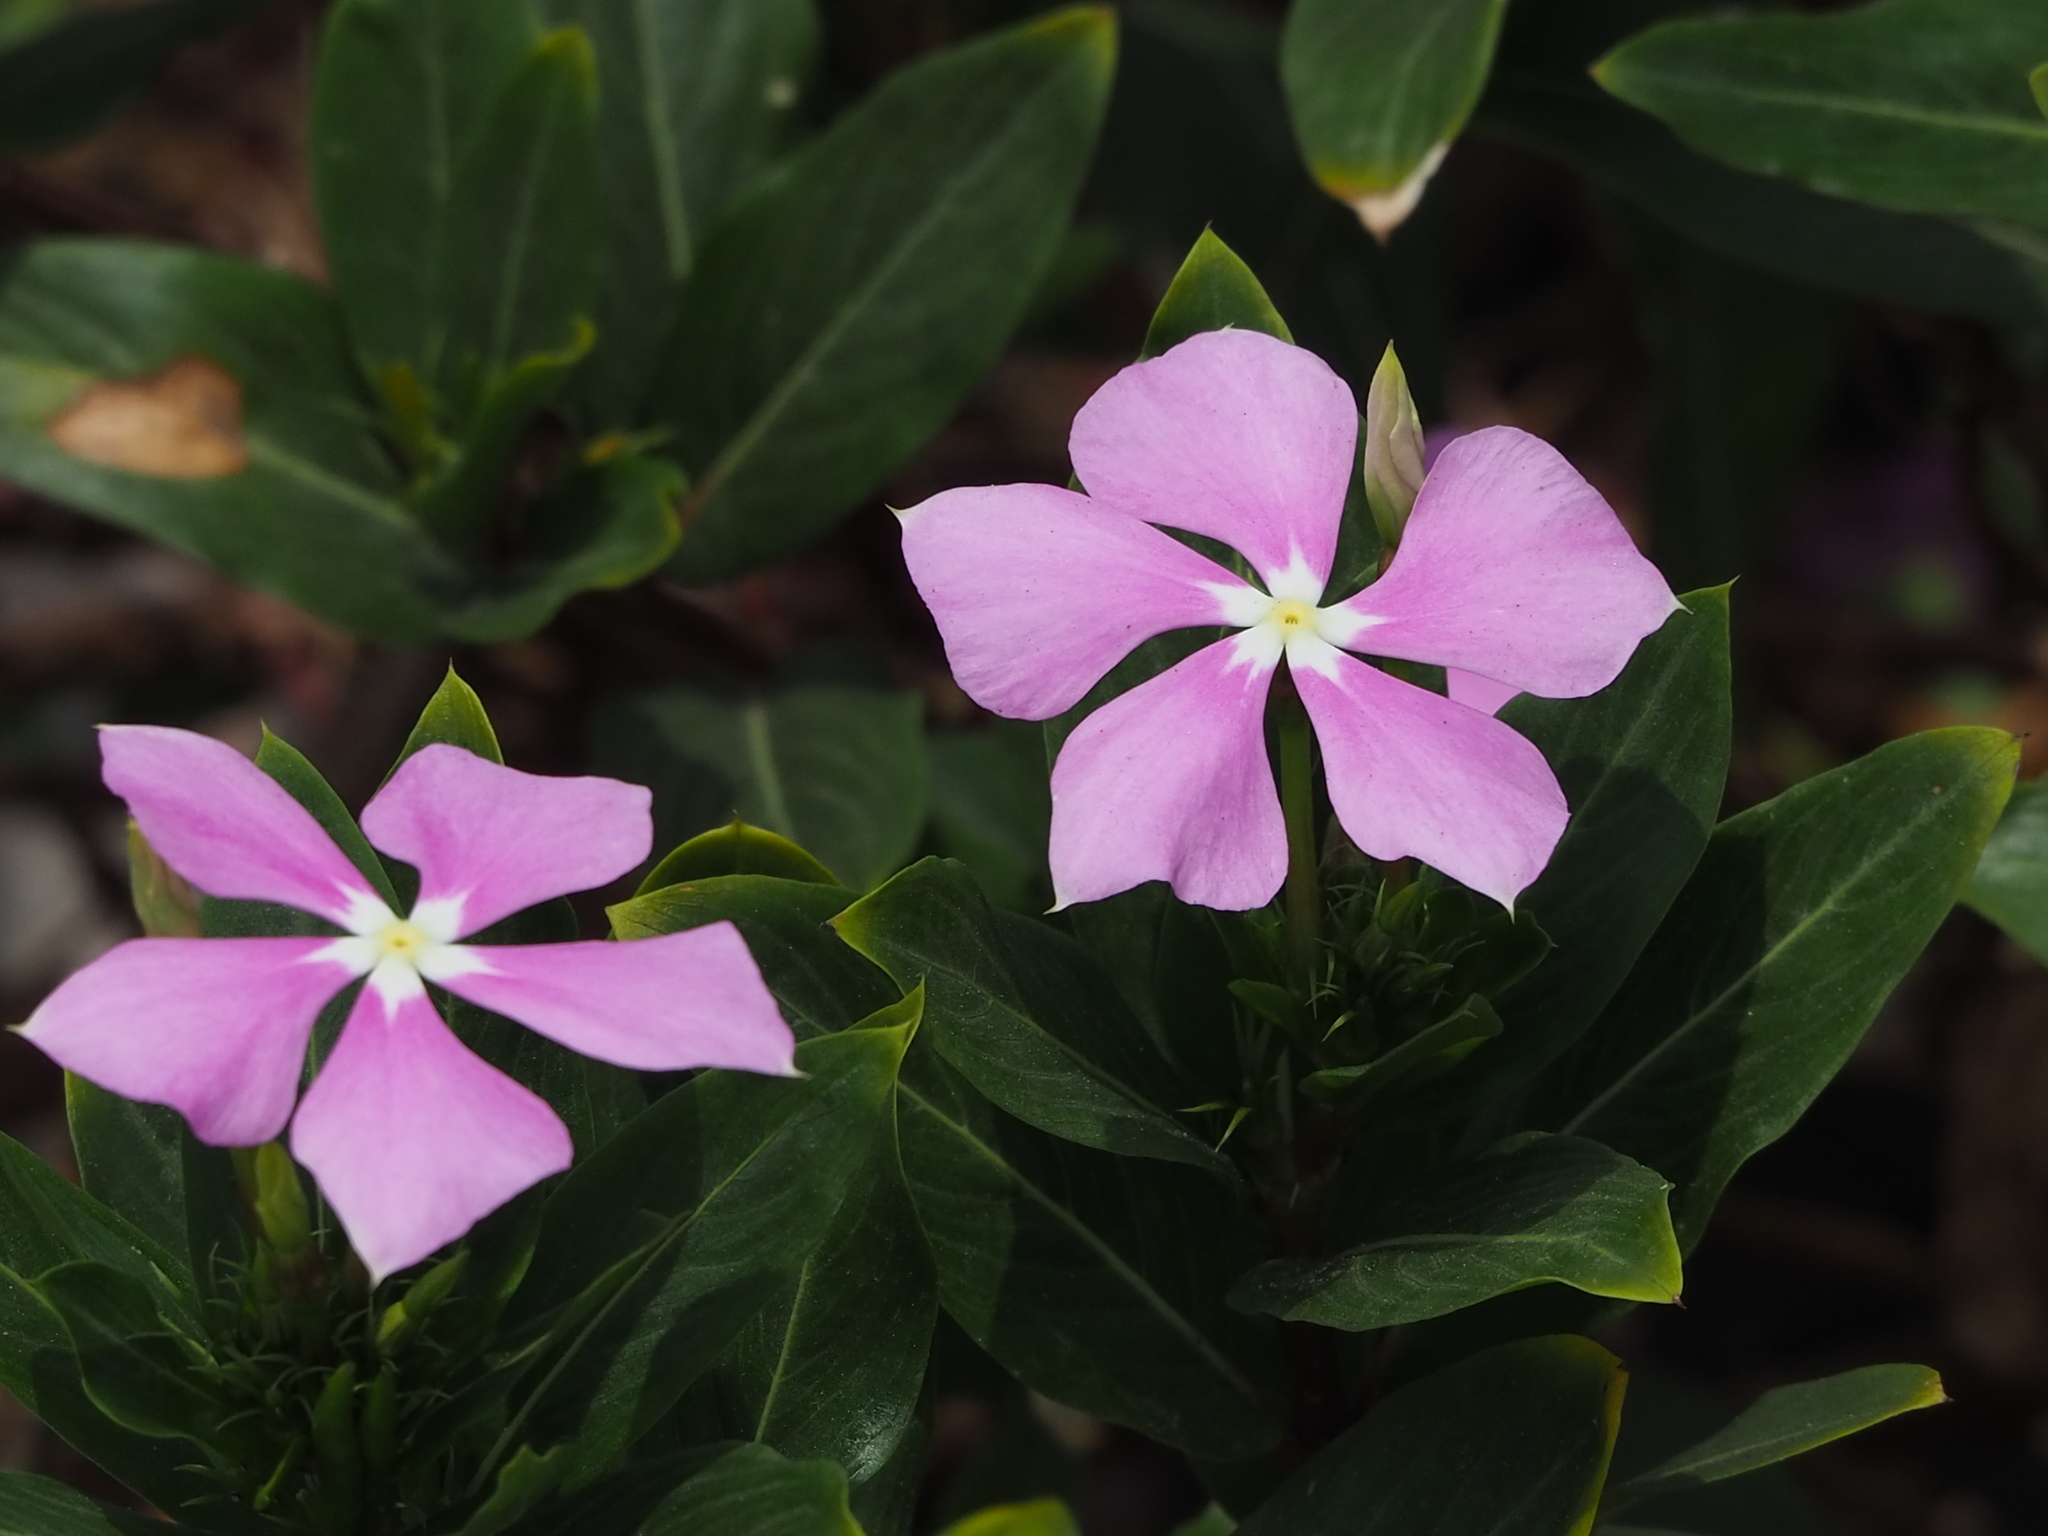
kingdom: Plantae
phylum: Tracheophyta
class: Magnoliopsida
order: Gentianales
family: Apocynaceae
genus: Catharanthus
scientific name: Catharanthus roseus
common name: Madagascar periwinkle
